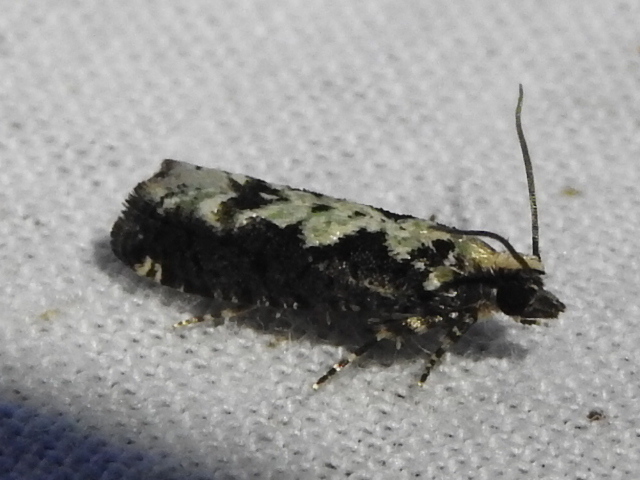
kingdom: Animalia
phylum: Arthropoda
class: Insecta
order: Lepidoptera
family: Tortricidae
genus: Chimoptesis
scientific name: Chimoptesis pennsylvaniana
